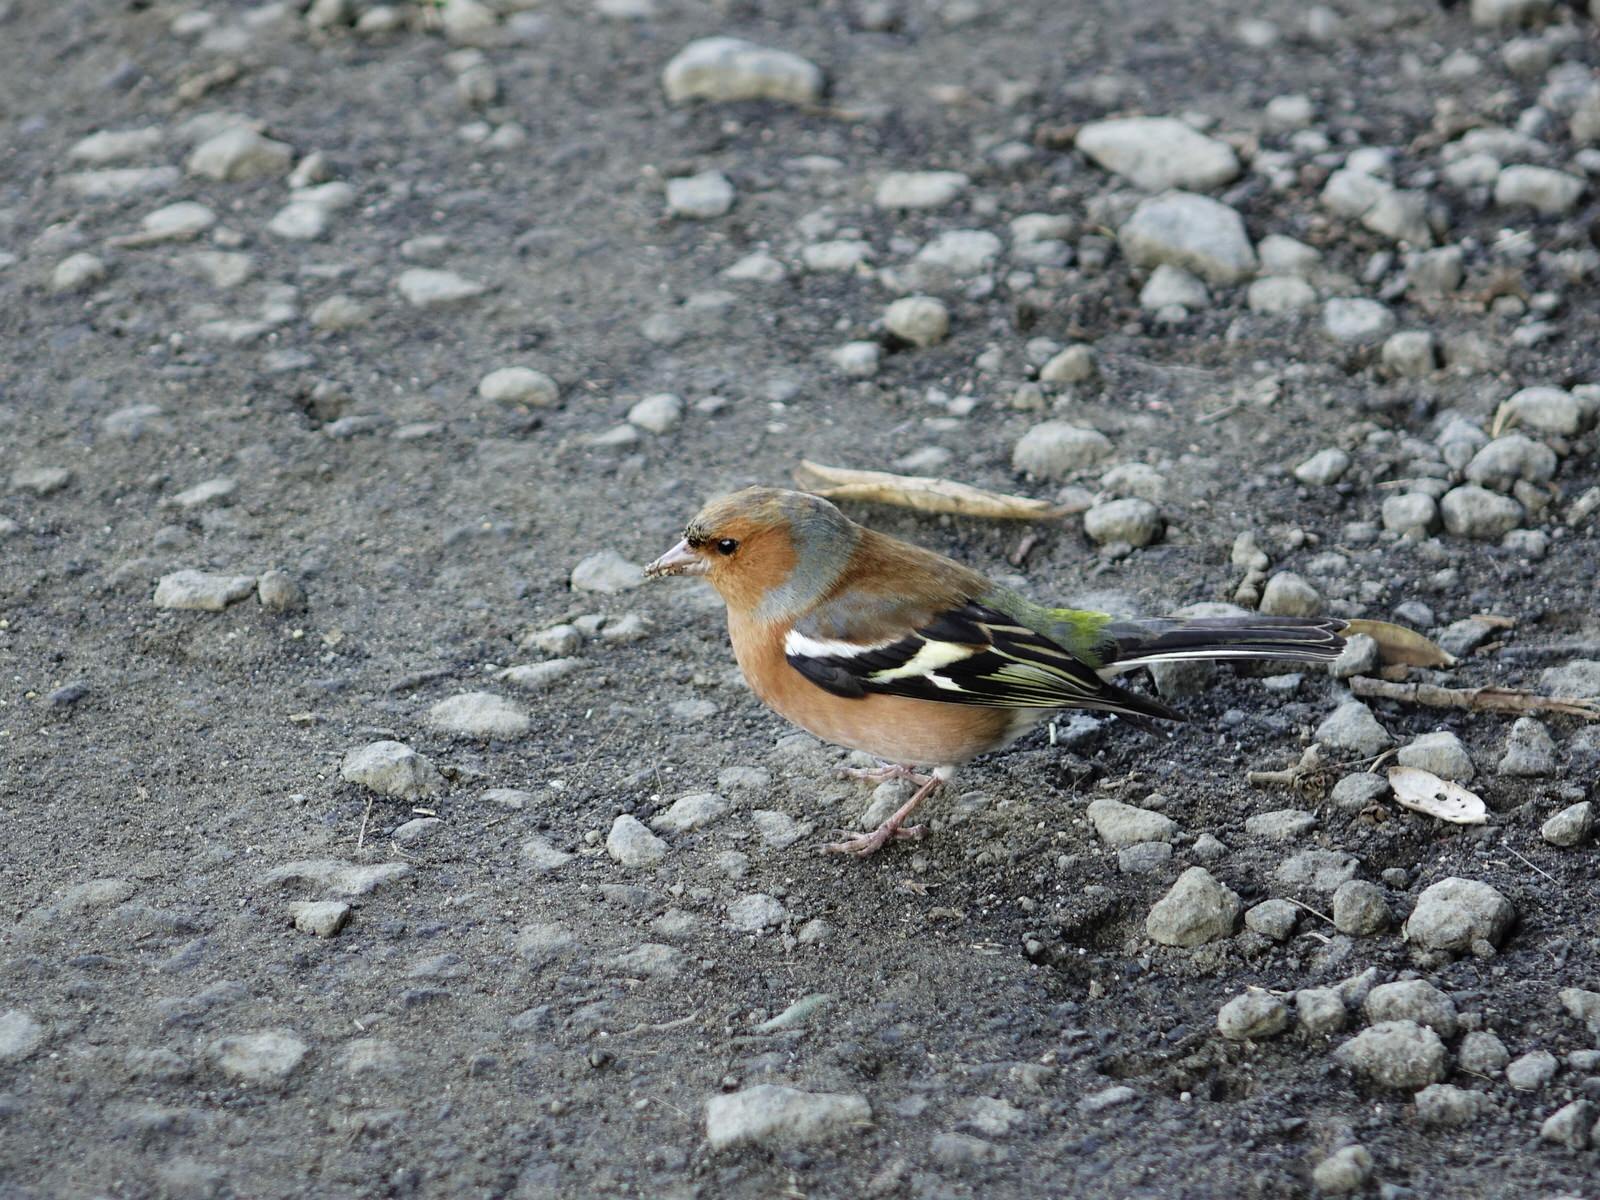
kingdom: Animalia
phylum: Chordata
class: Aves
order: Passeriformes
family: Fringillidae
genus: Fringilla
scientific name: Fringilla coelebs
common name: Common chaffinch
